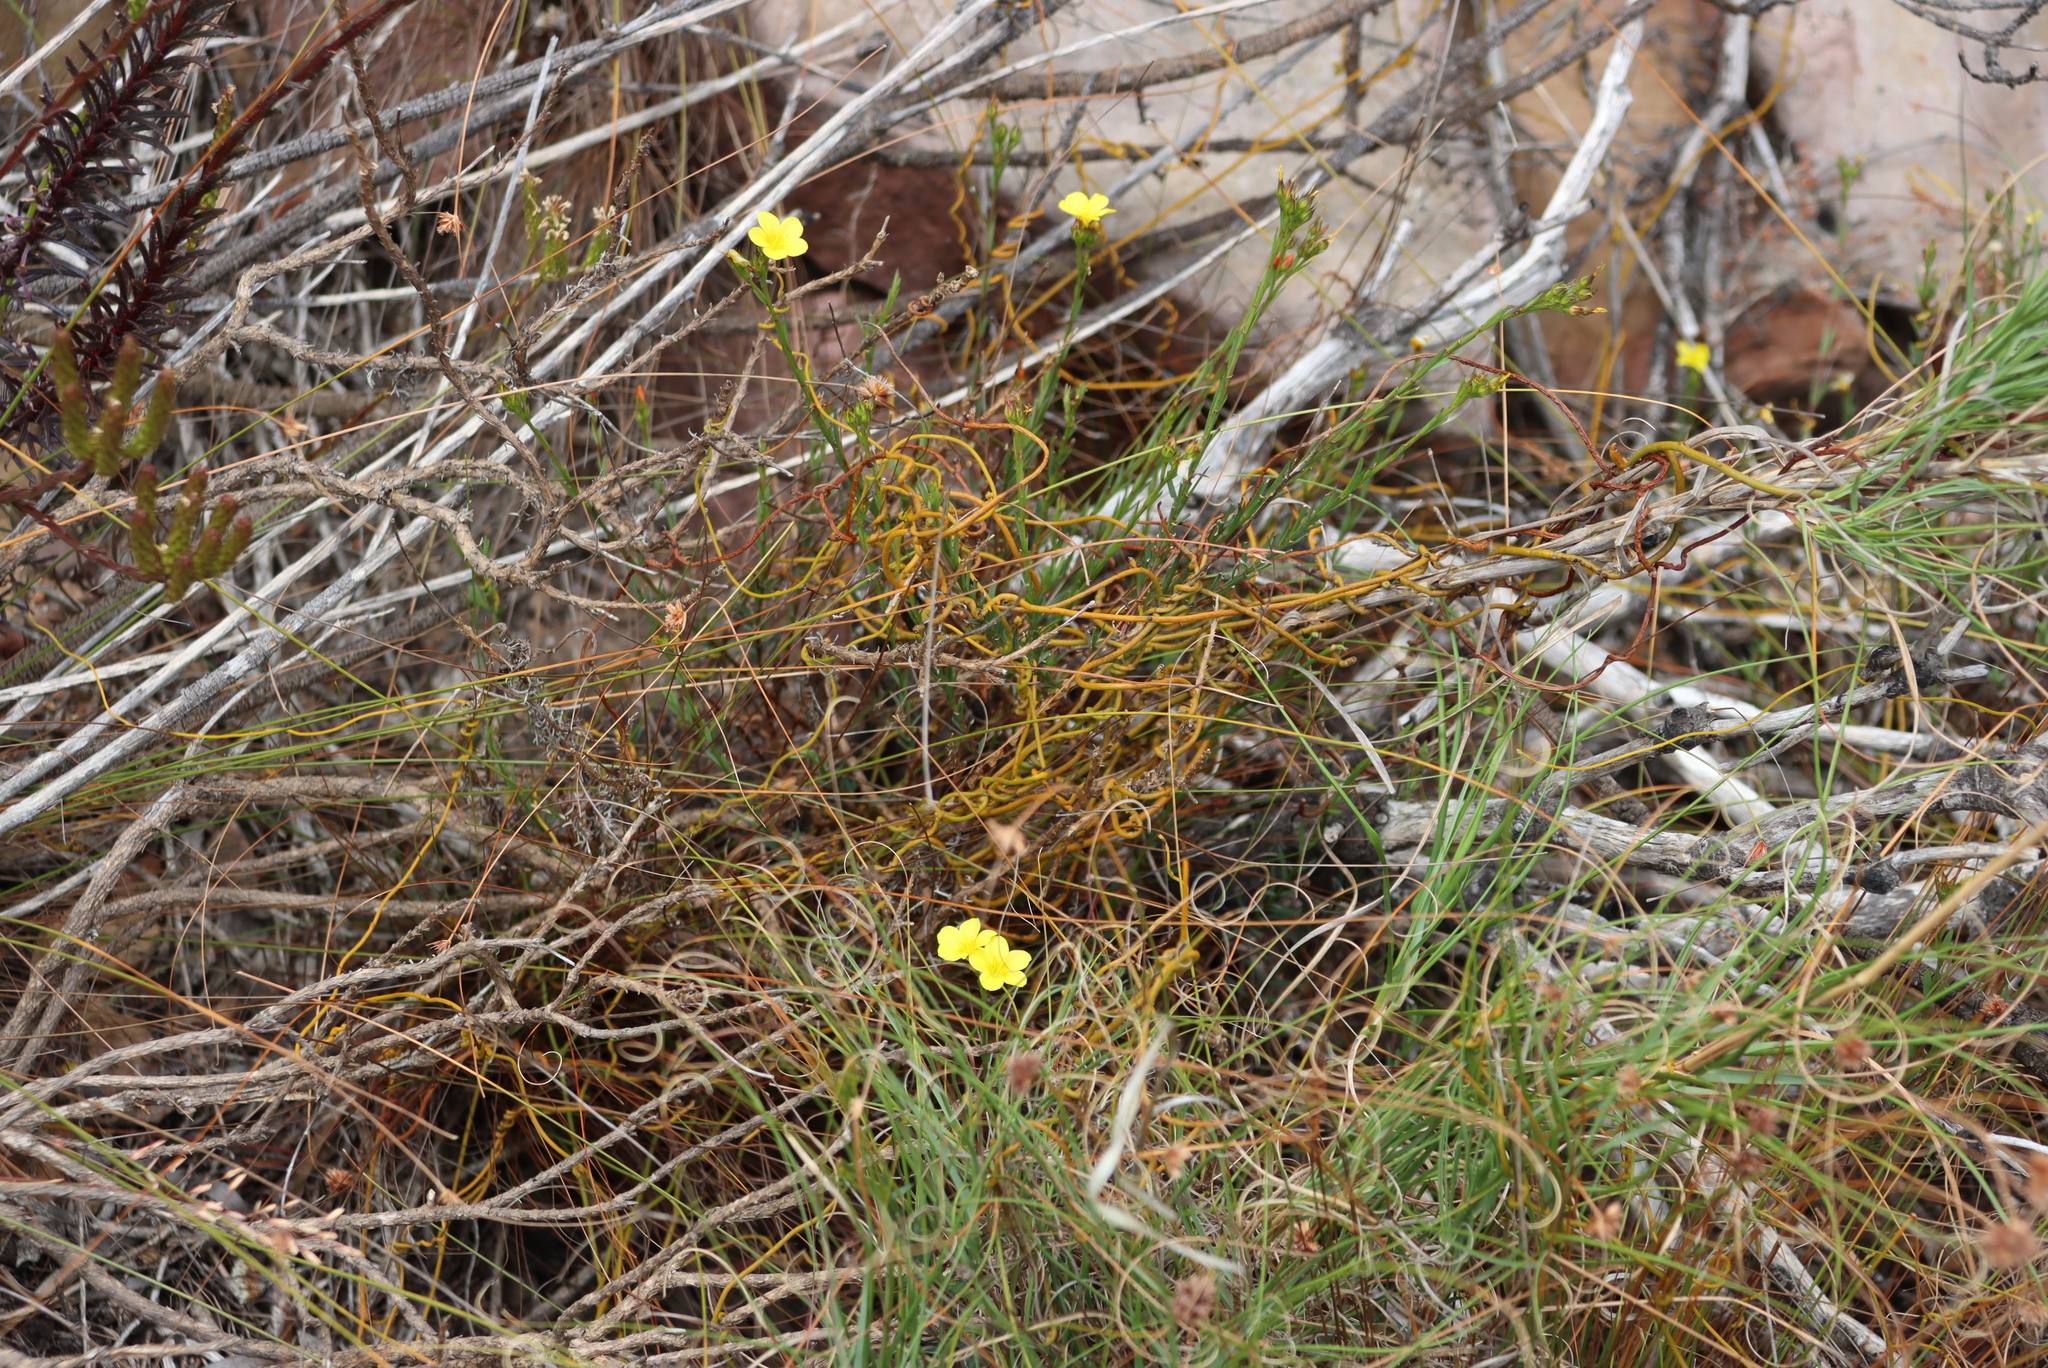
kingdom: Plantae
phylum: Tracheophyta
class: Magnoliopsida
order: Laurales
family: Lauraceae
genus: Cassytha
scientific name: Cassytha ciliolata
